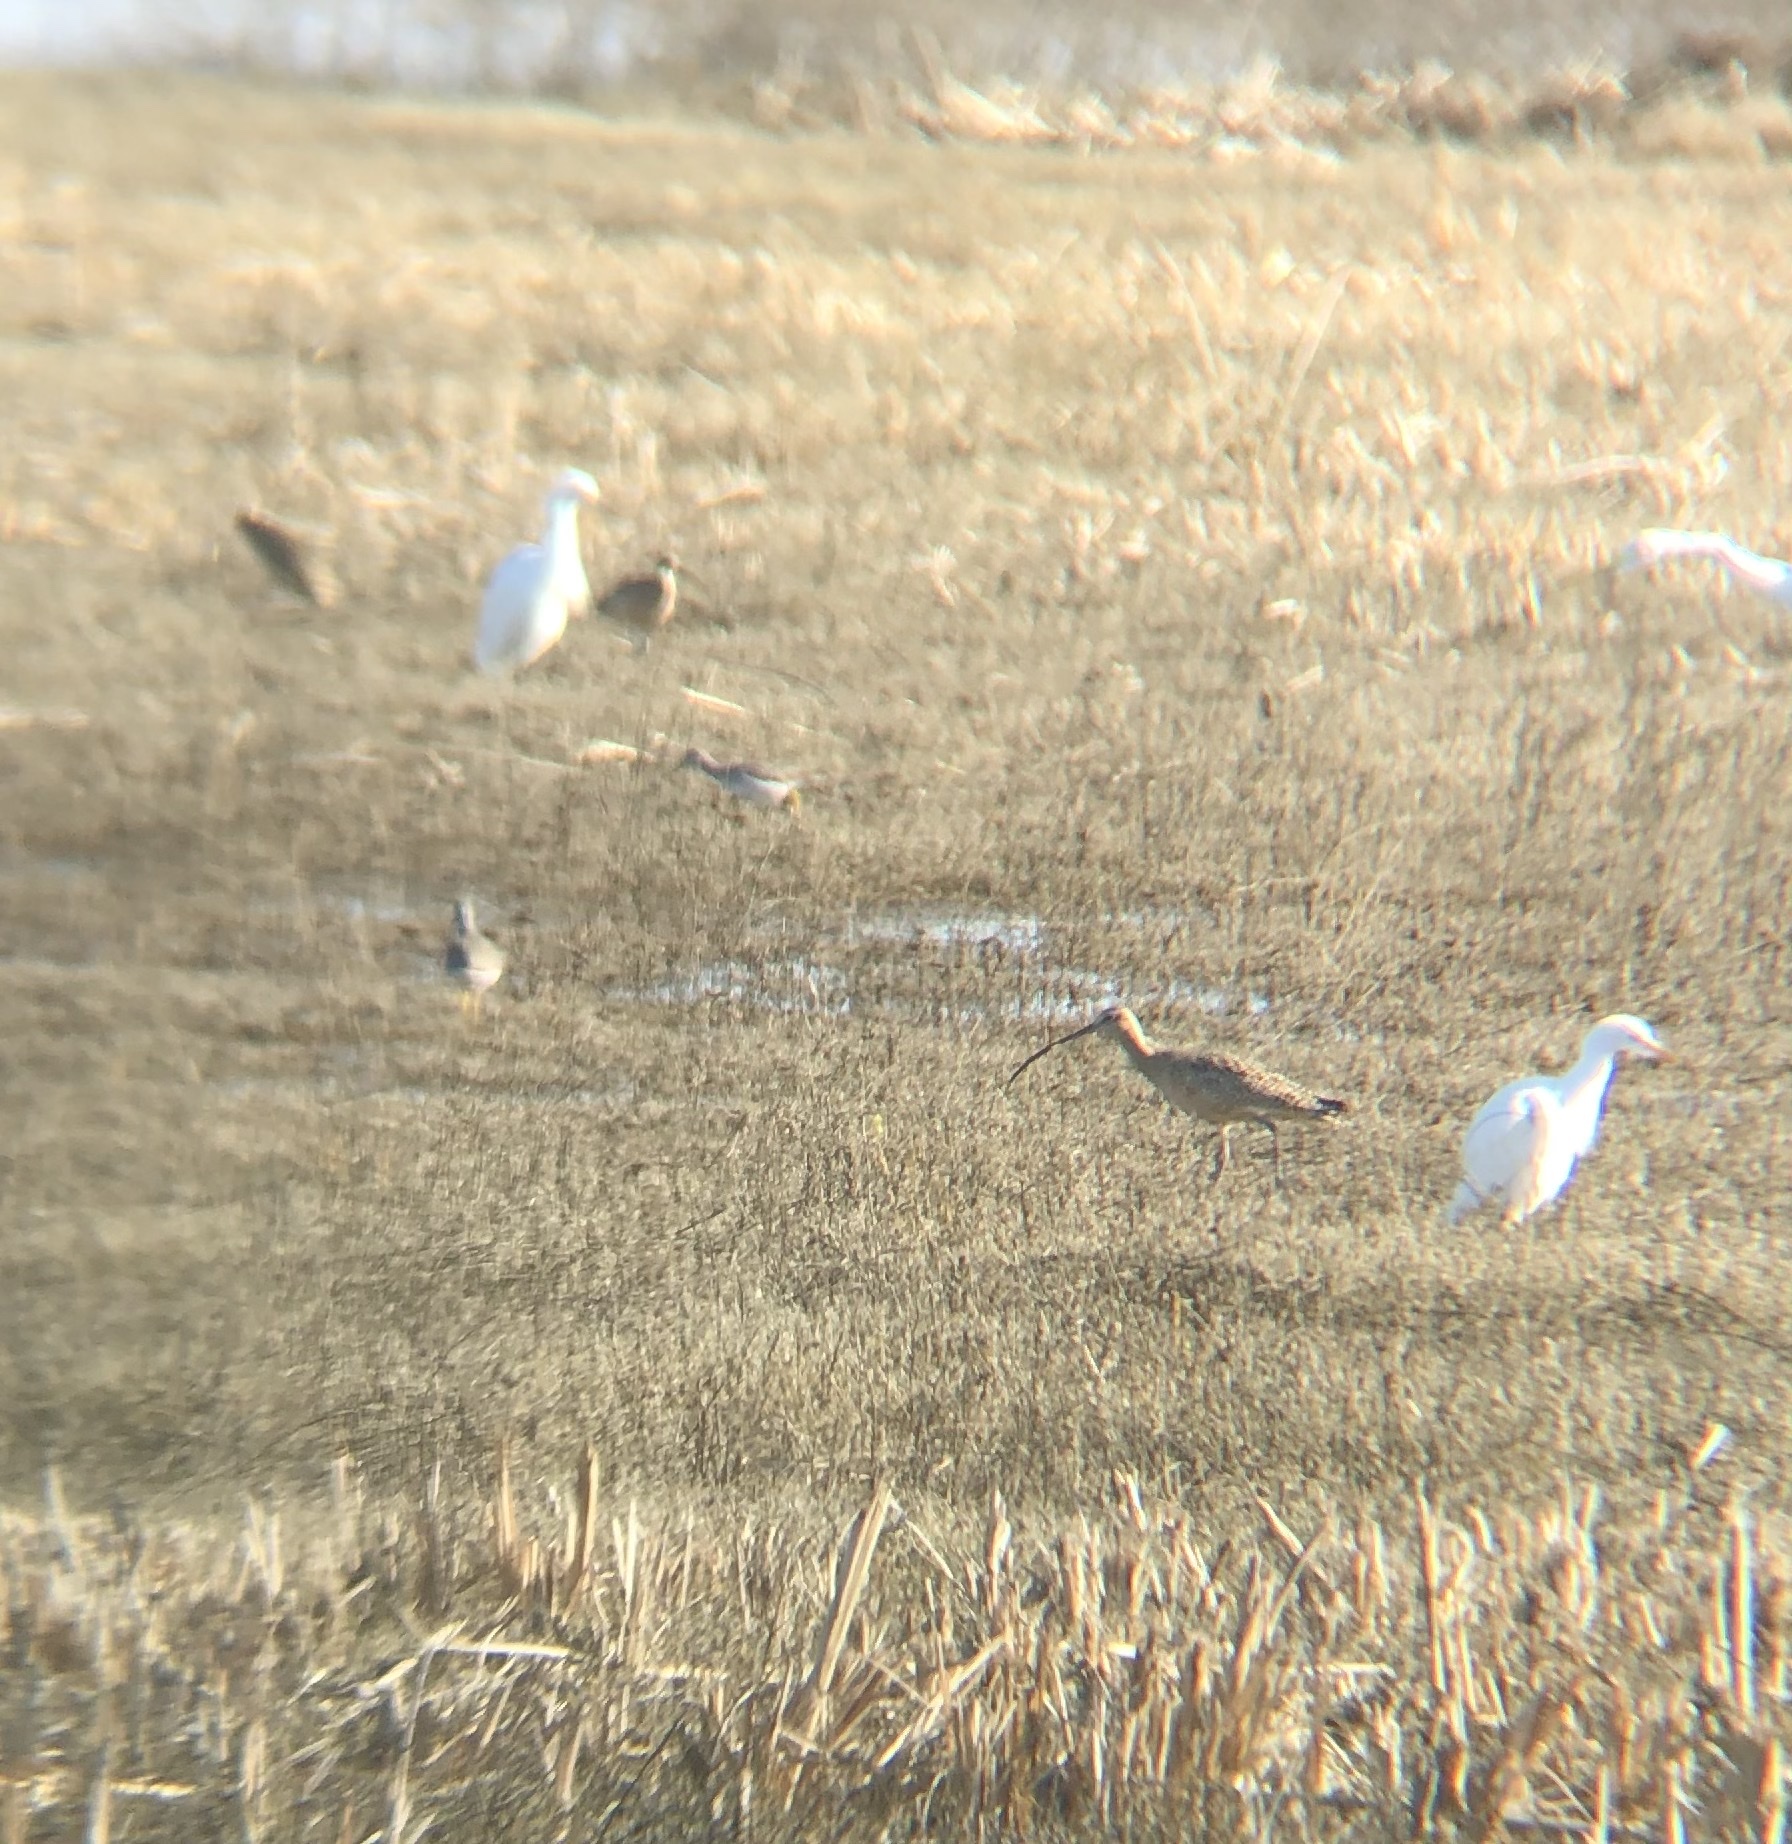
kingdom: Animalia
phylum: Chordata
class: Aves
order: Charadriiformes
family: Scolopacidae
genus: Numenius
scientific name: Numenius americanus
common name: Long-billed curlew
